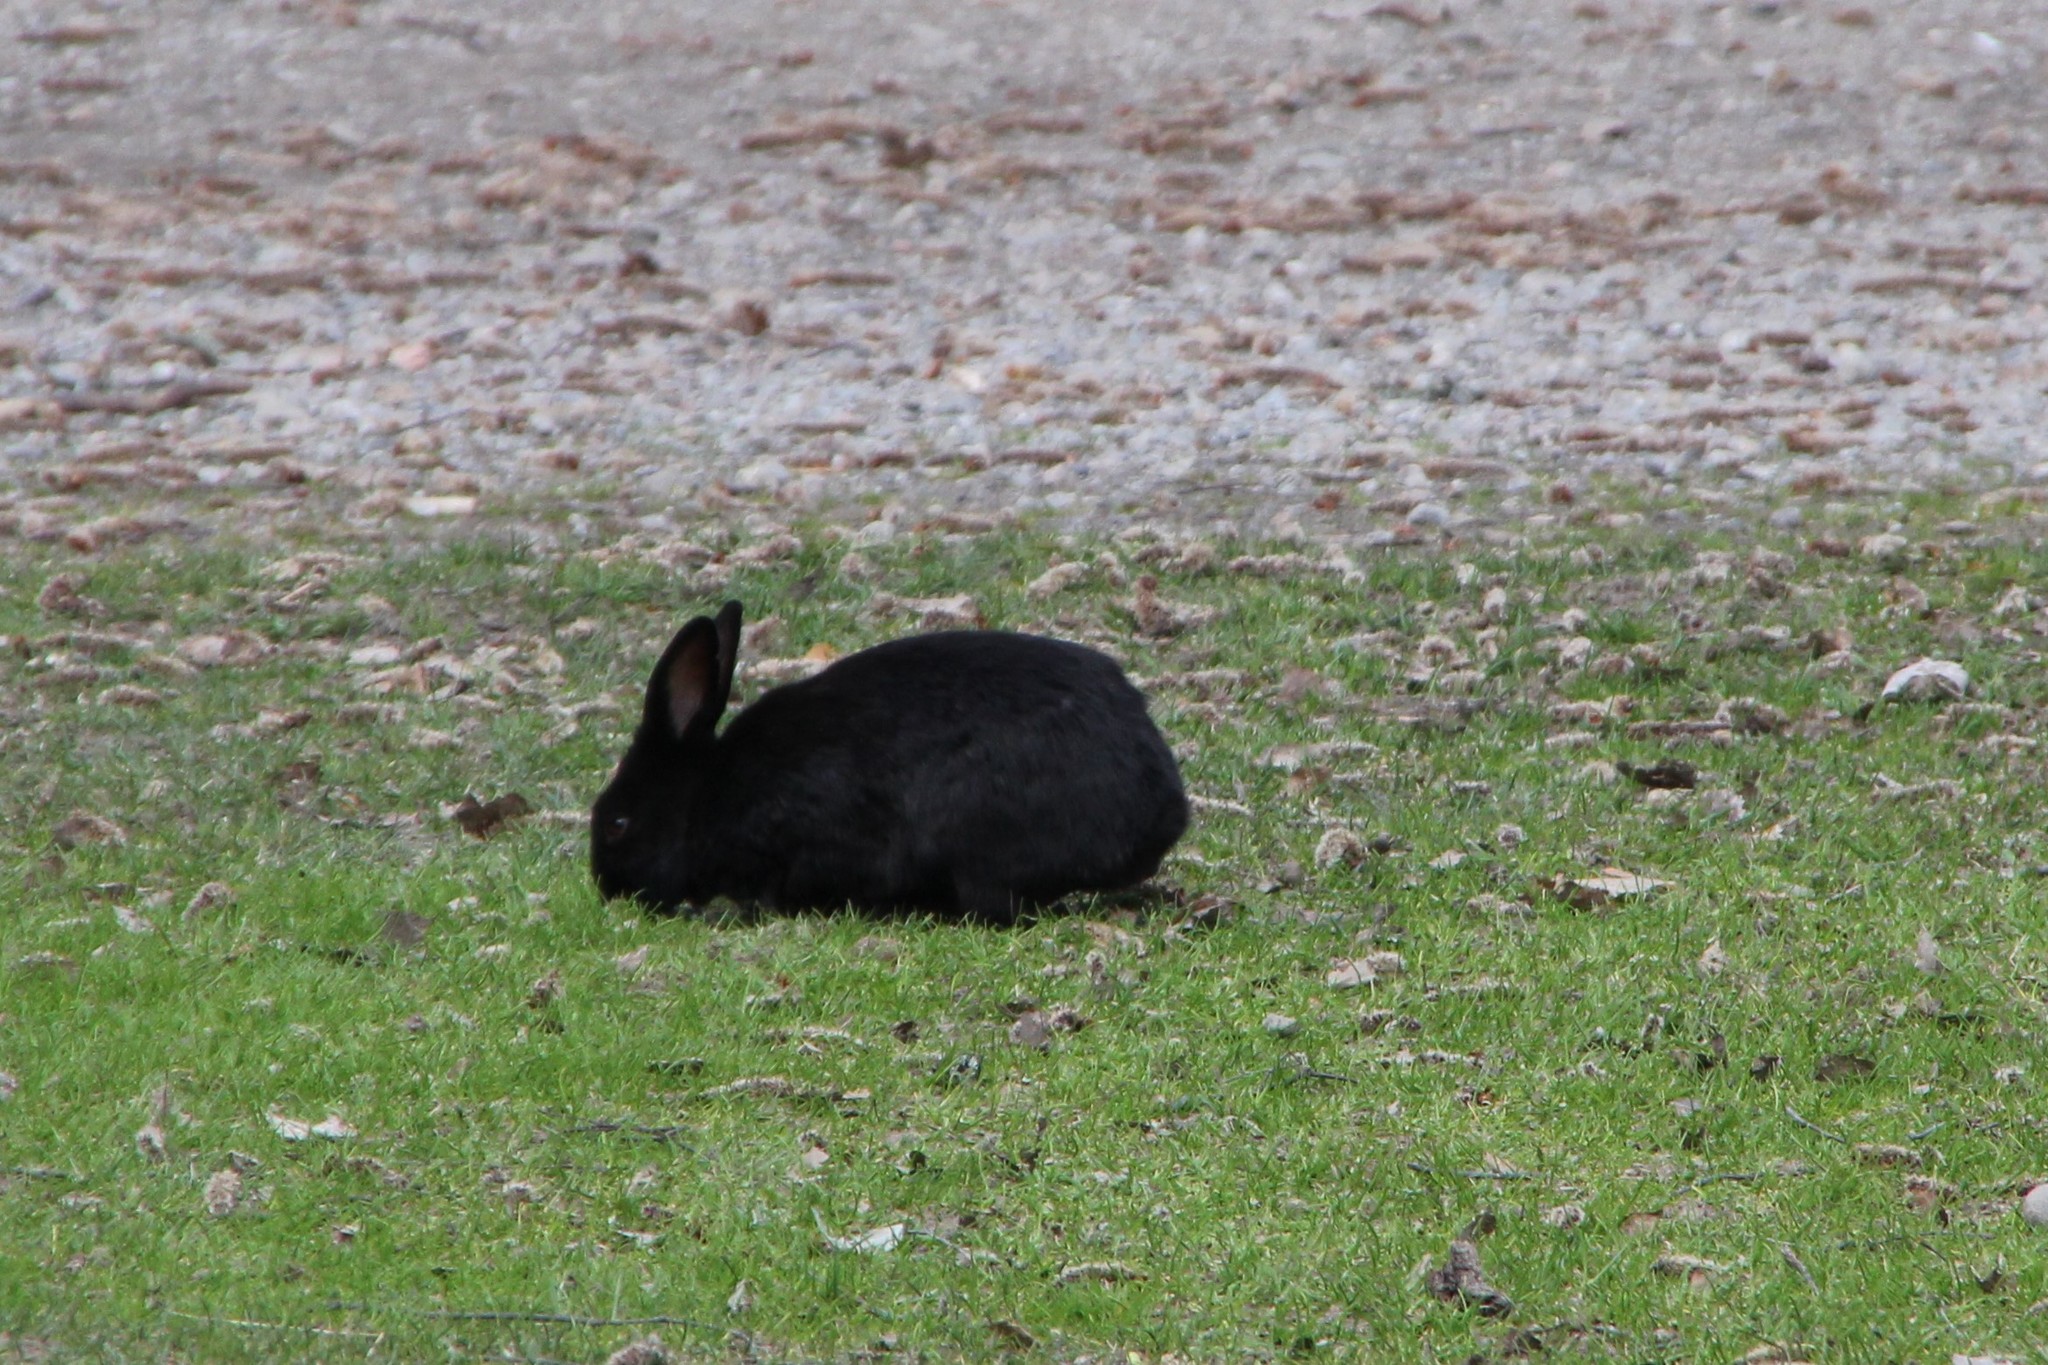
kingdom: Animalia
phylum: Chordata
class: Mammalia
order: Lagomorpha
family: Leporidae
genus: Oryctolagus
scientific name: Oryctolagus cuniculus
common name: European rabbit
